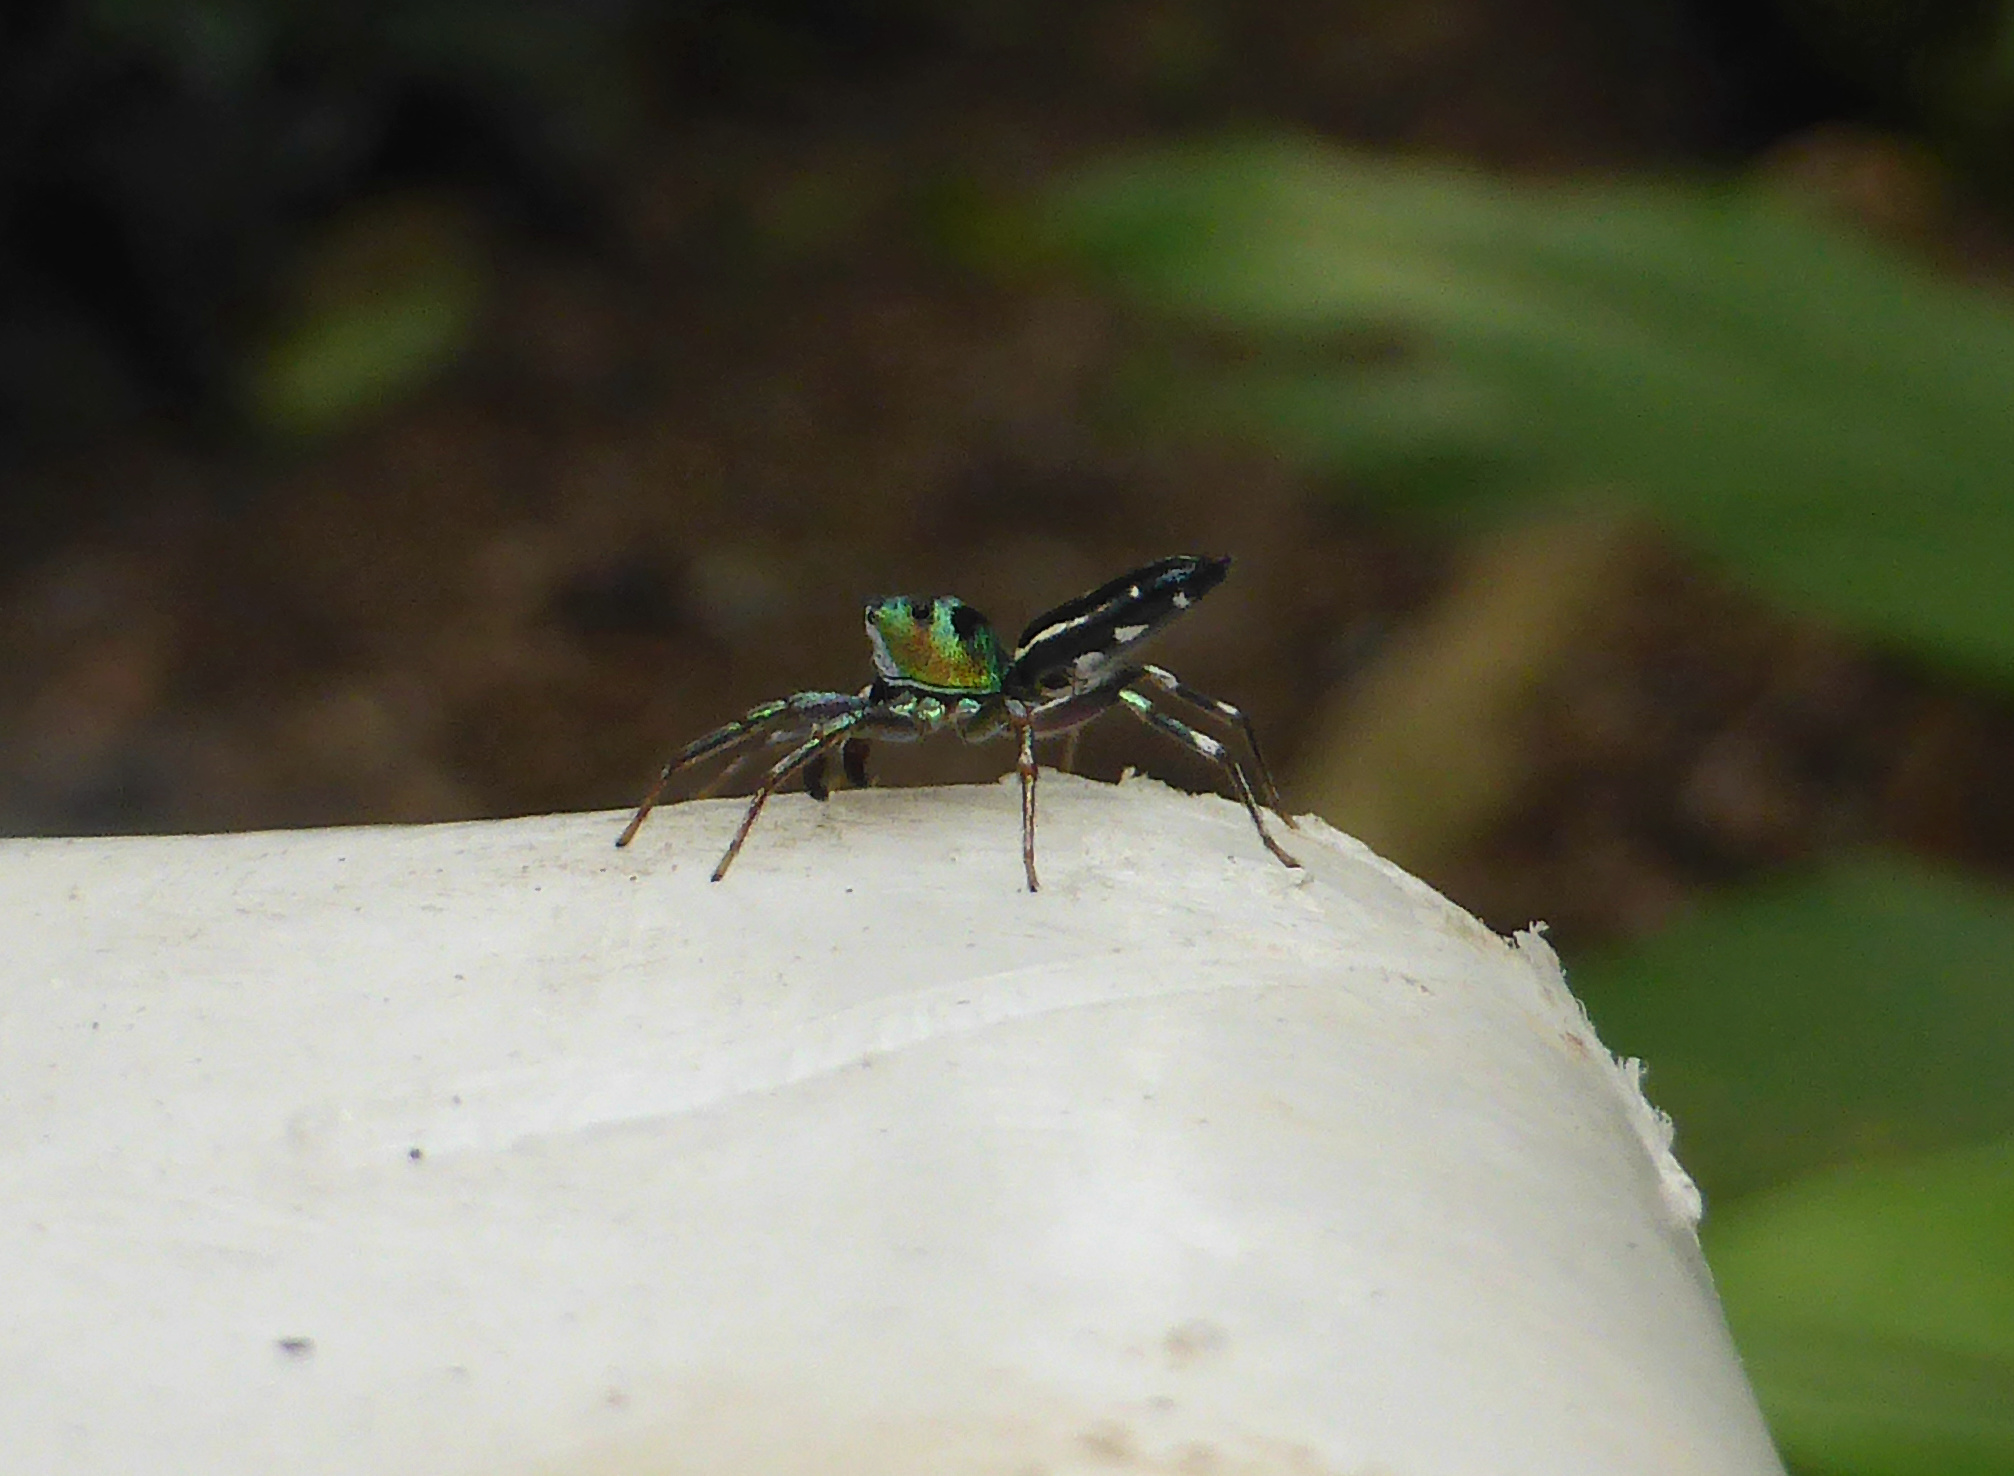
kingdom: Animalia
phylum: Arthropoda
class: Arachnida
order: Araneae
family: Salticidae
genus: Cosmophasis
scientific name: Cosmophasis thalassina
